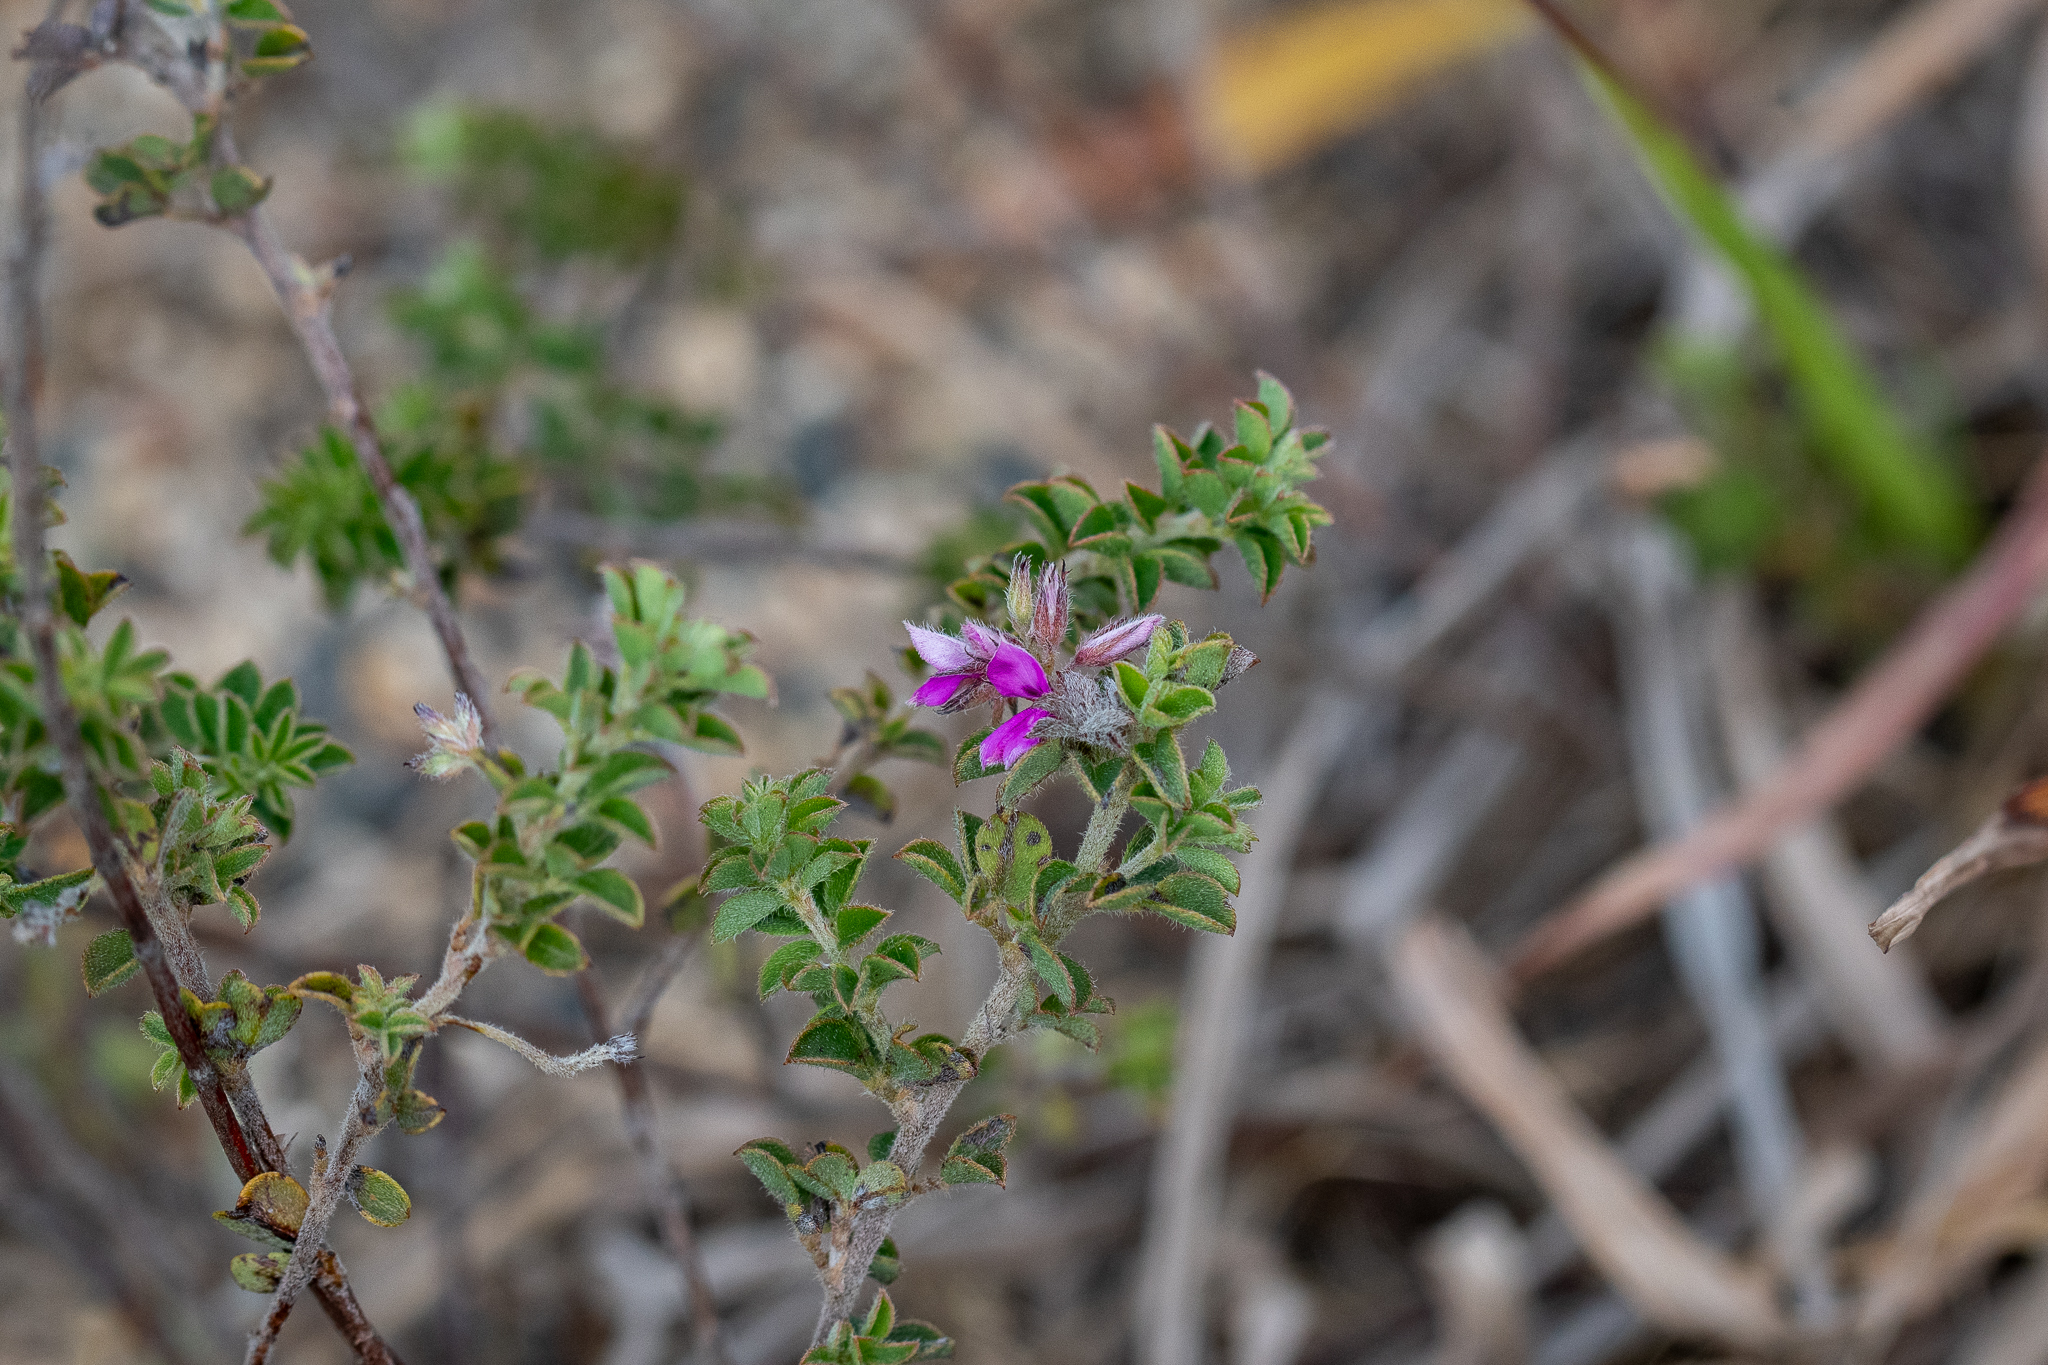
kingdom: Plantae
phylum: Tracheophyta
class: Magnoliopsida
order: Fabales
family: Fabaceae
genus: Indigofera
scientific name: Indigofera alopecuroides
